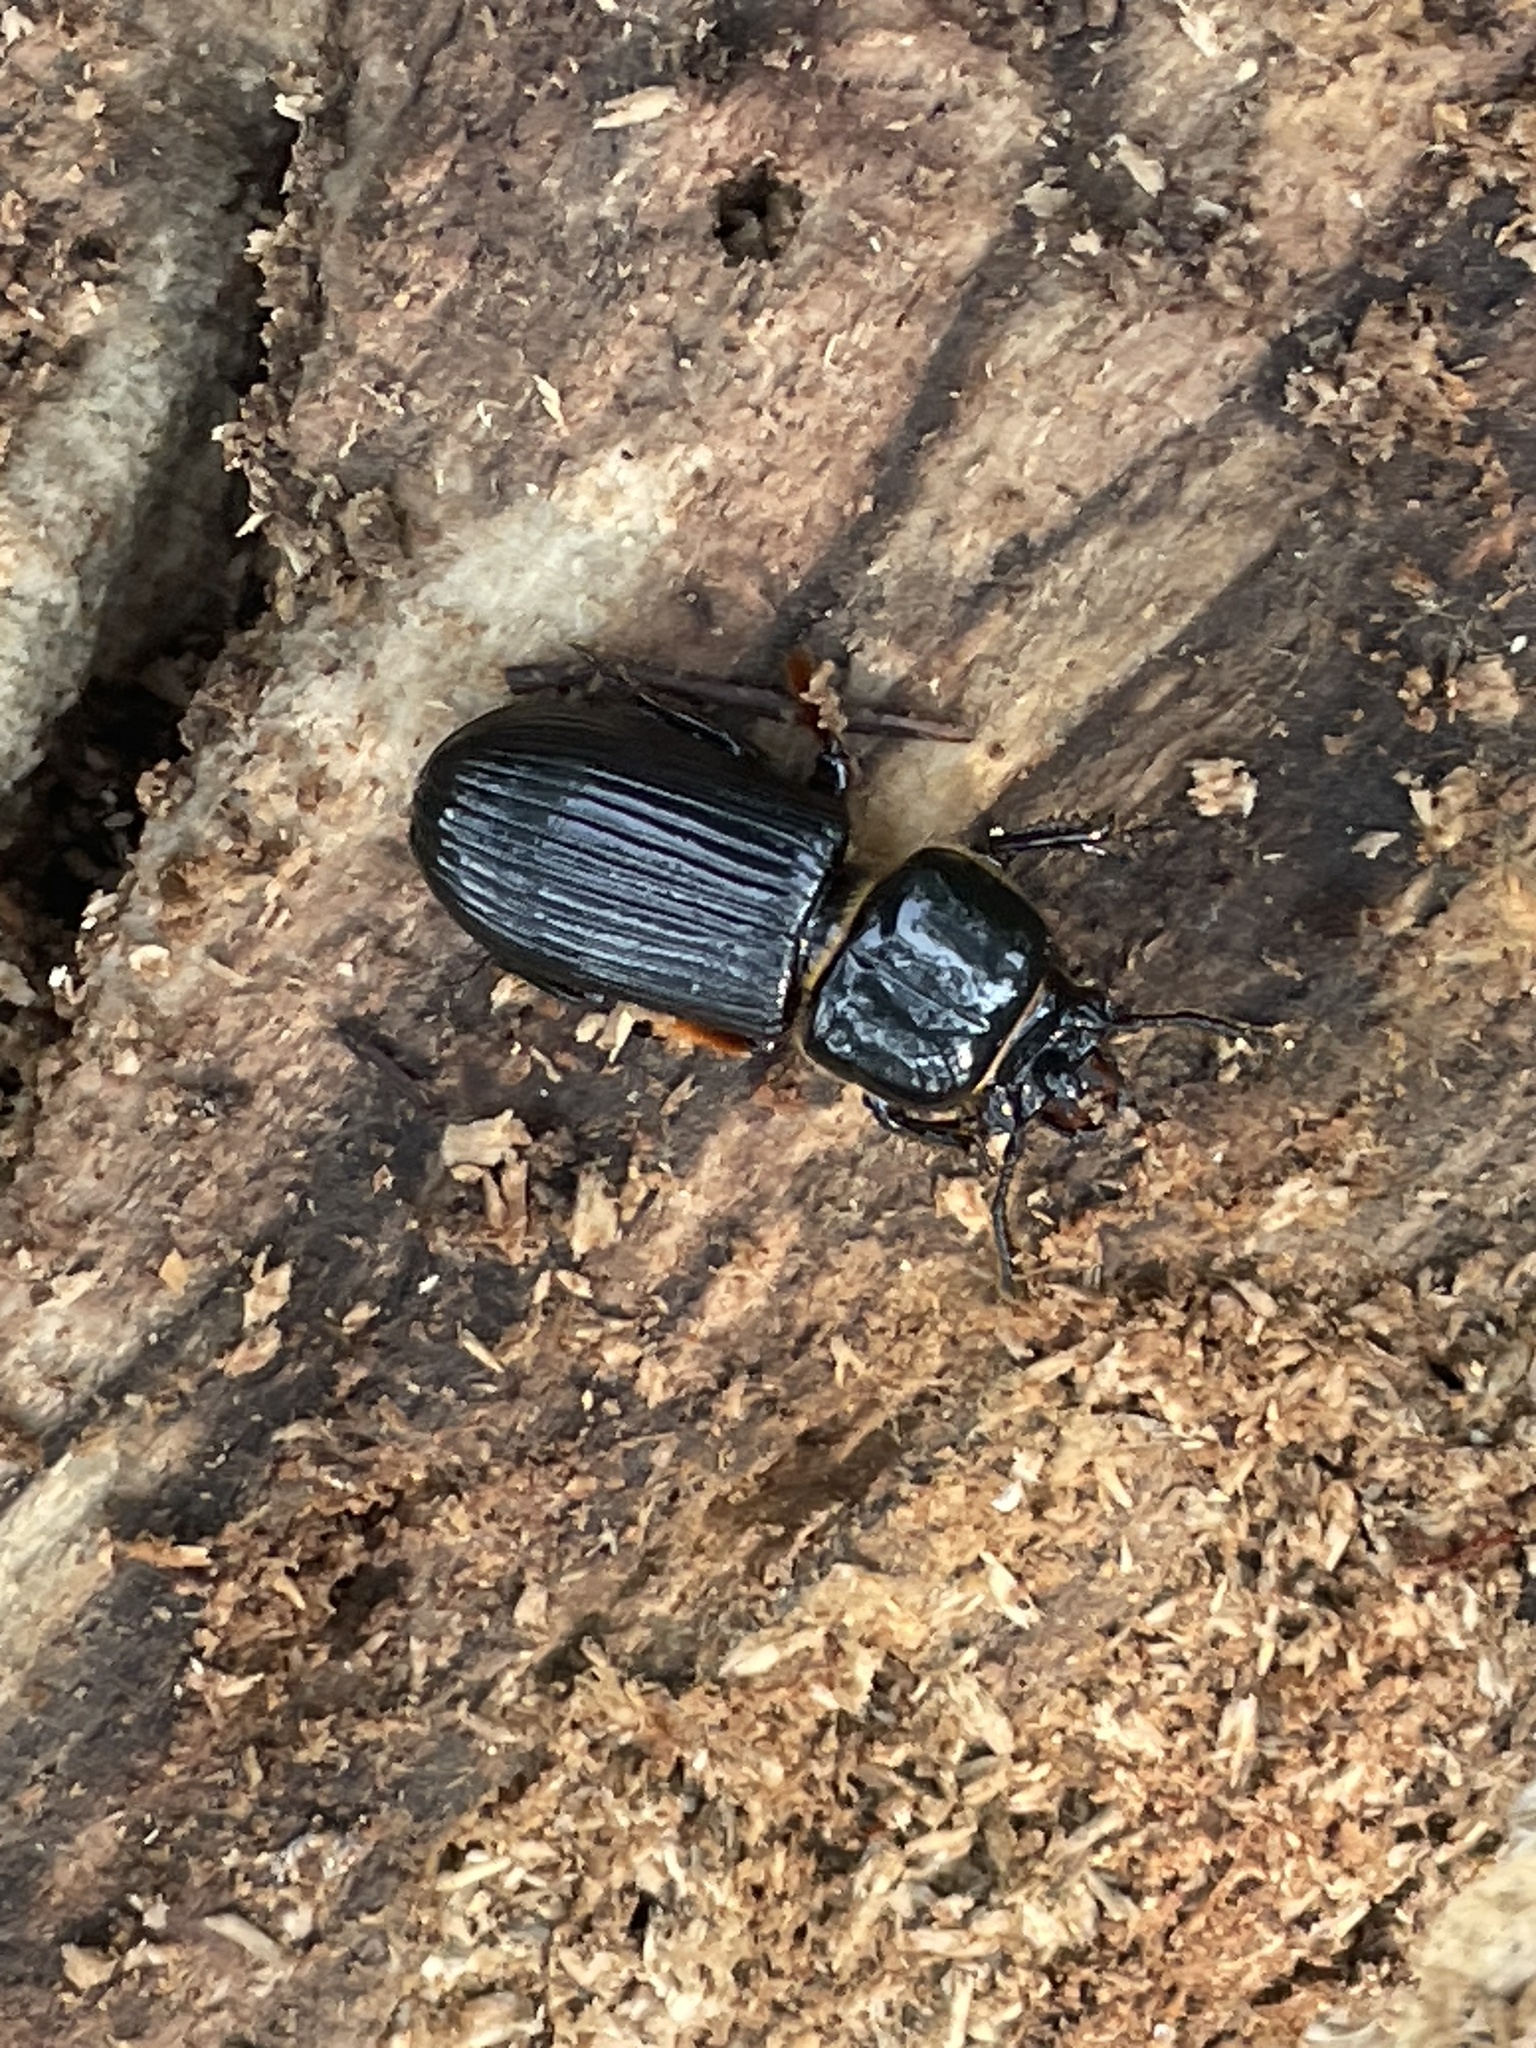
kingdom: Animalia
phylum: Arthropoda
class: Insecta
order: Coleoptera
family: Passalidae
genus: Odontotaenius
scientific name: Odontotaenius disjunctus
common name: Patent leather beetle
